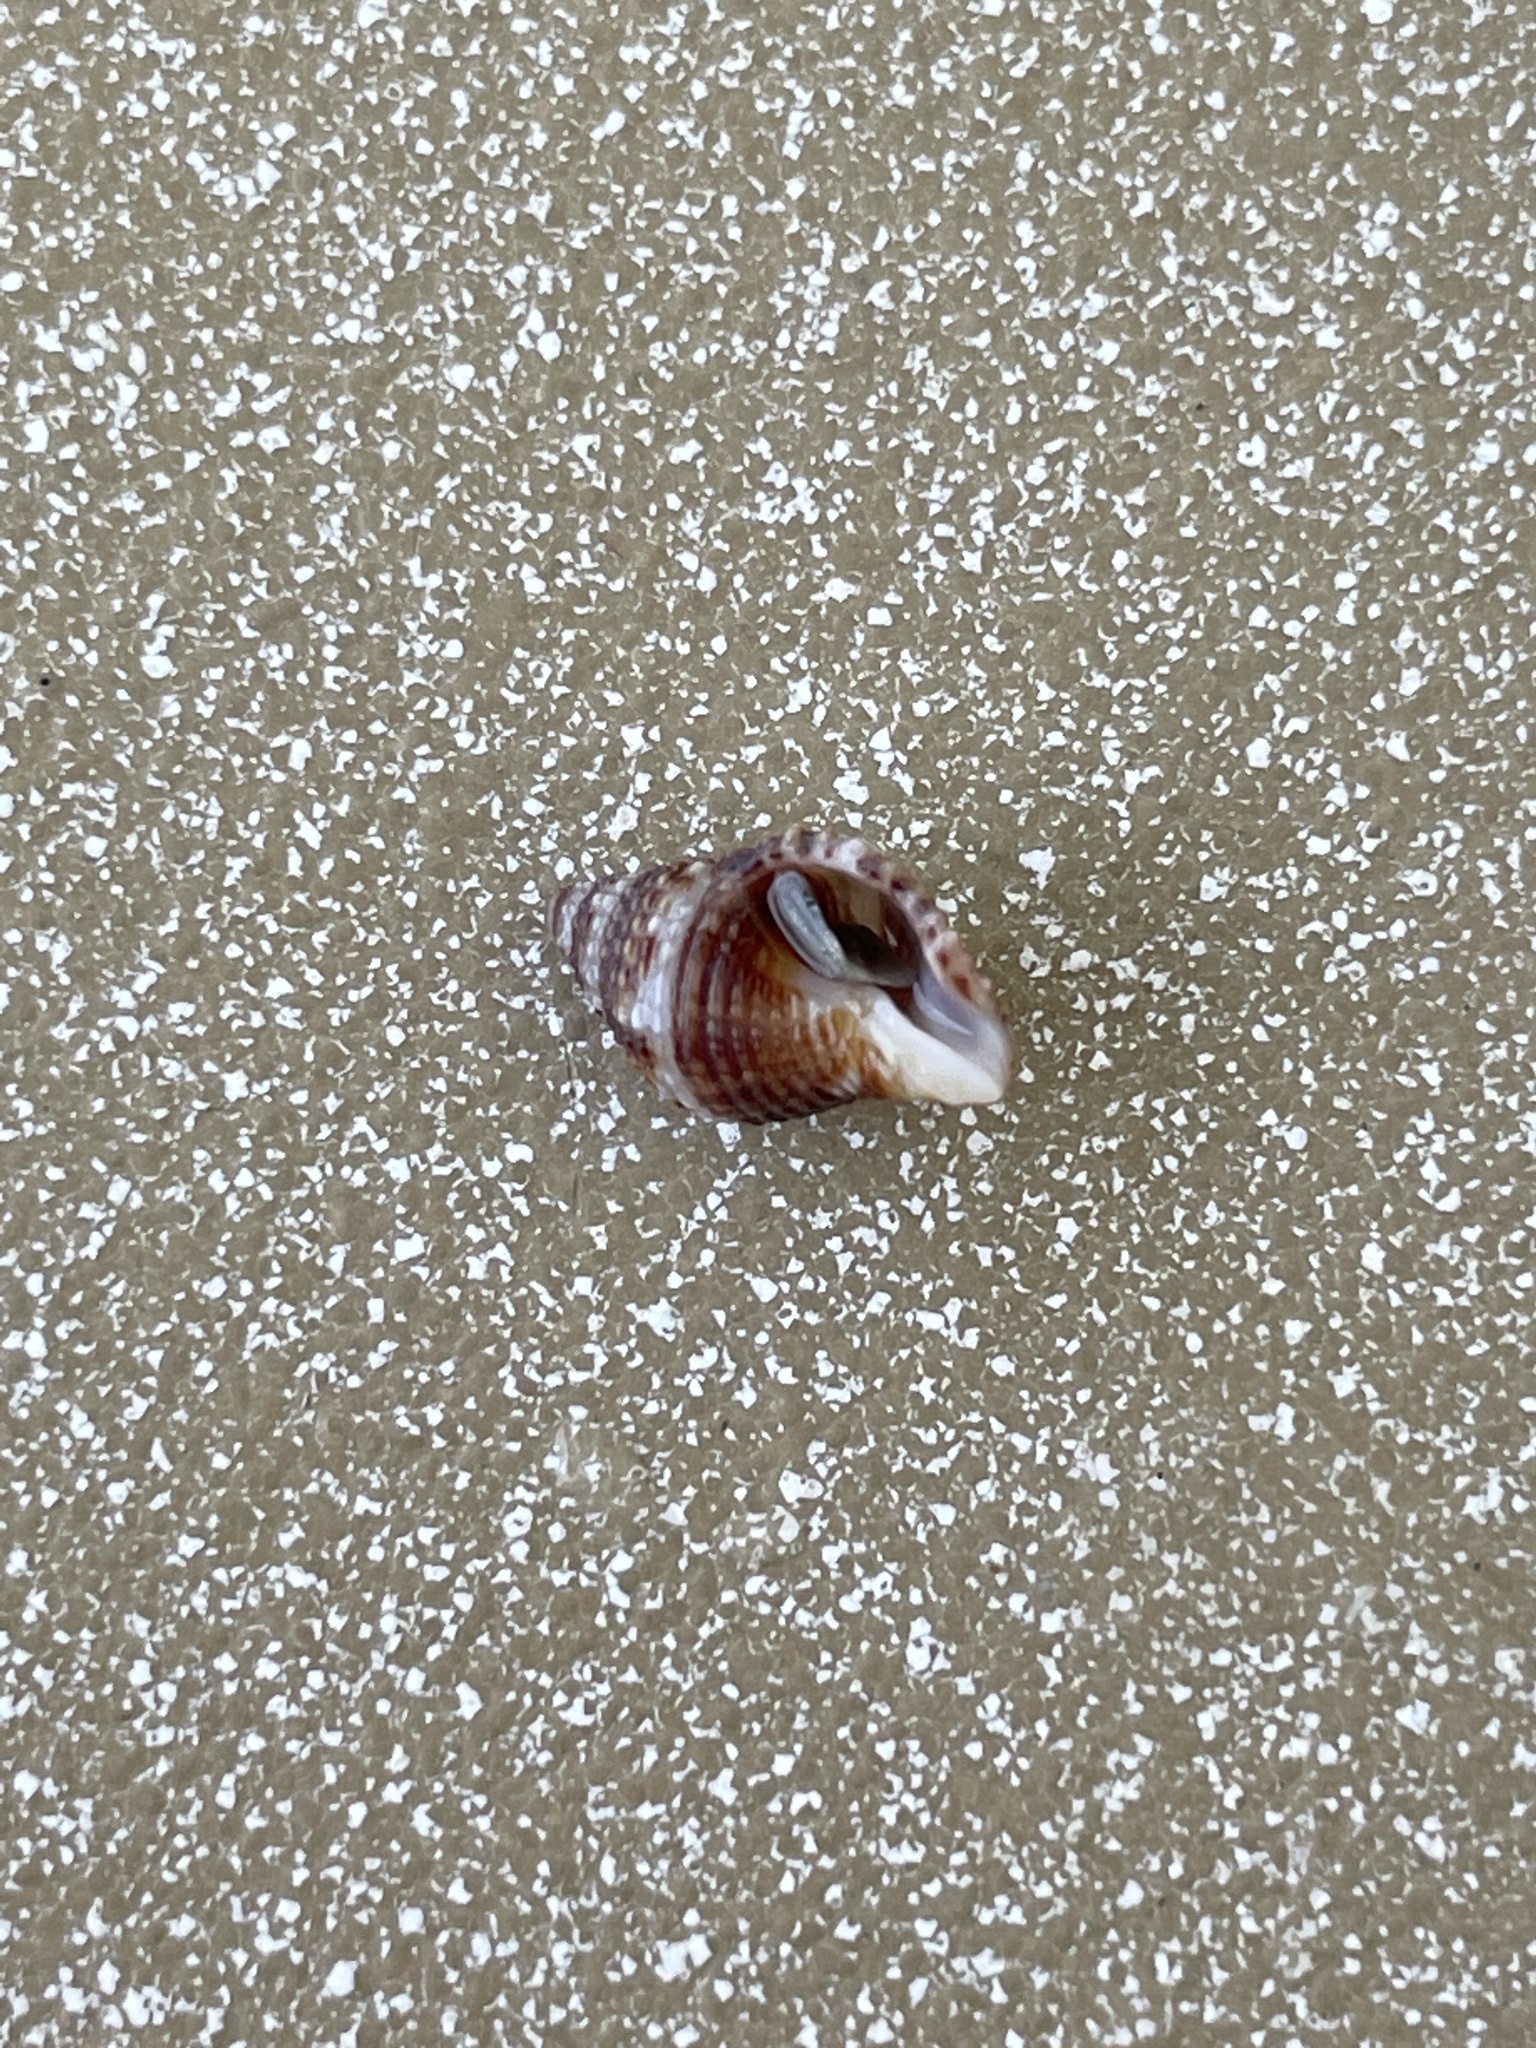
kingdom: Animalia
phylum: Mollusca
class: Gastropoda
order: Neogastropoda
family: Pisaniidae
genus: Gemophos
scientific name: Gemophos tinctus
